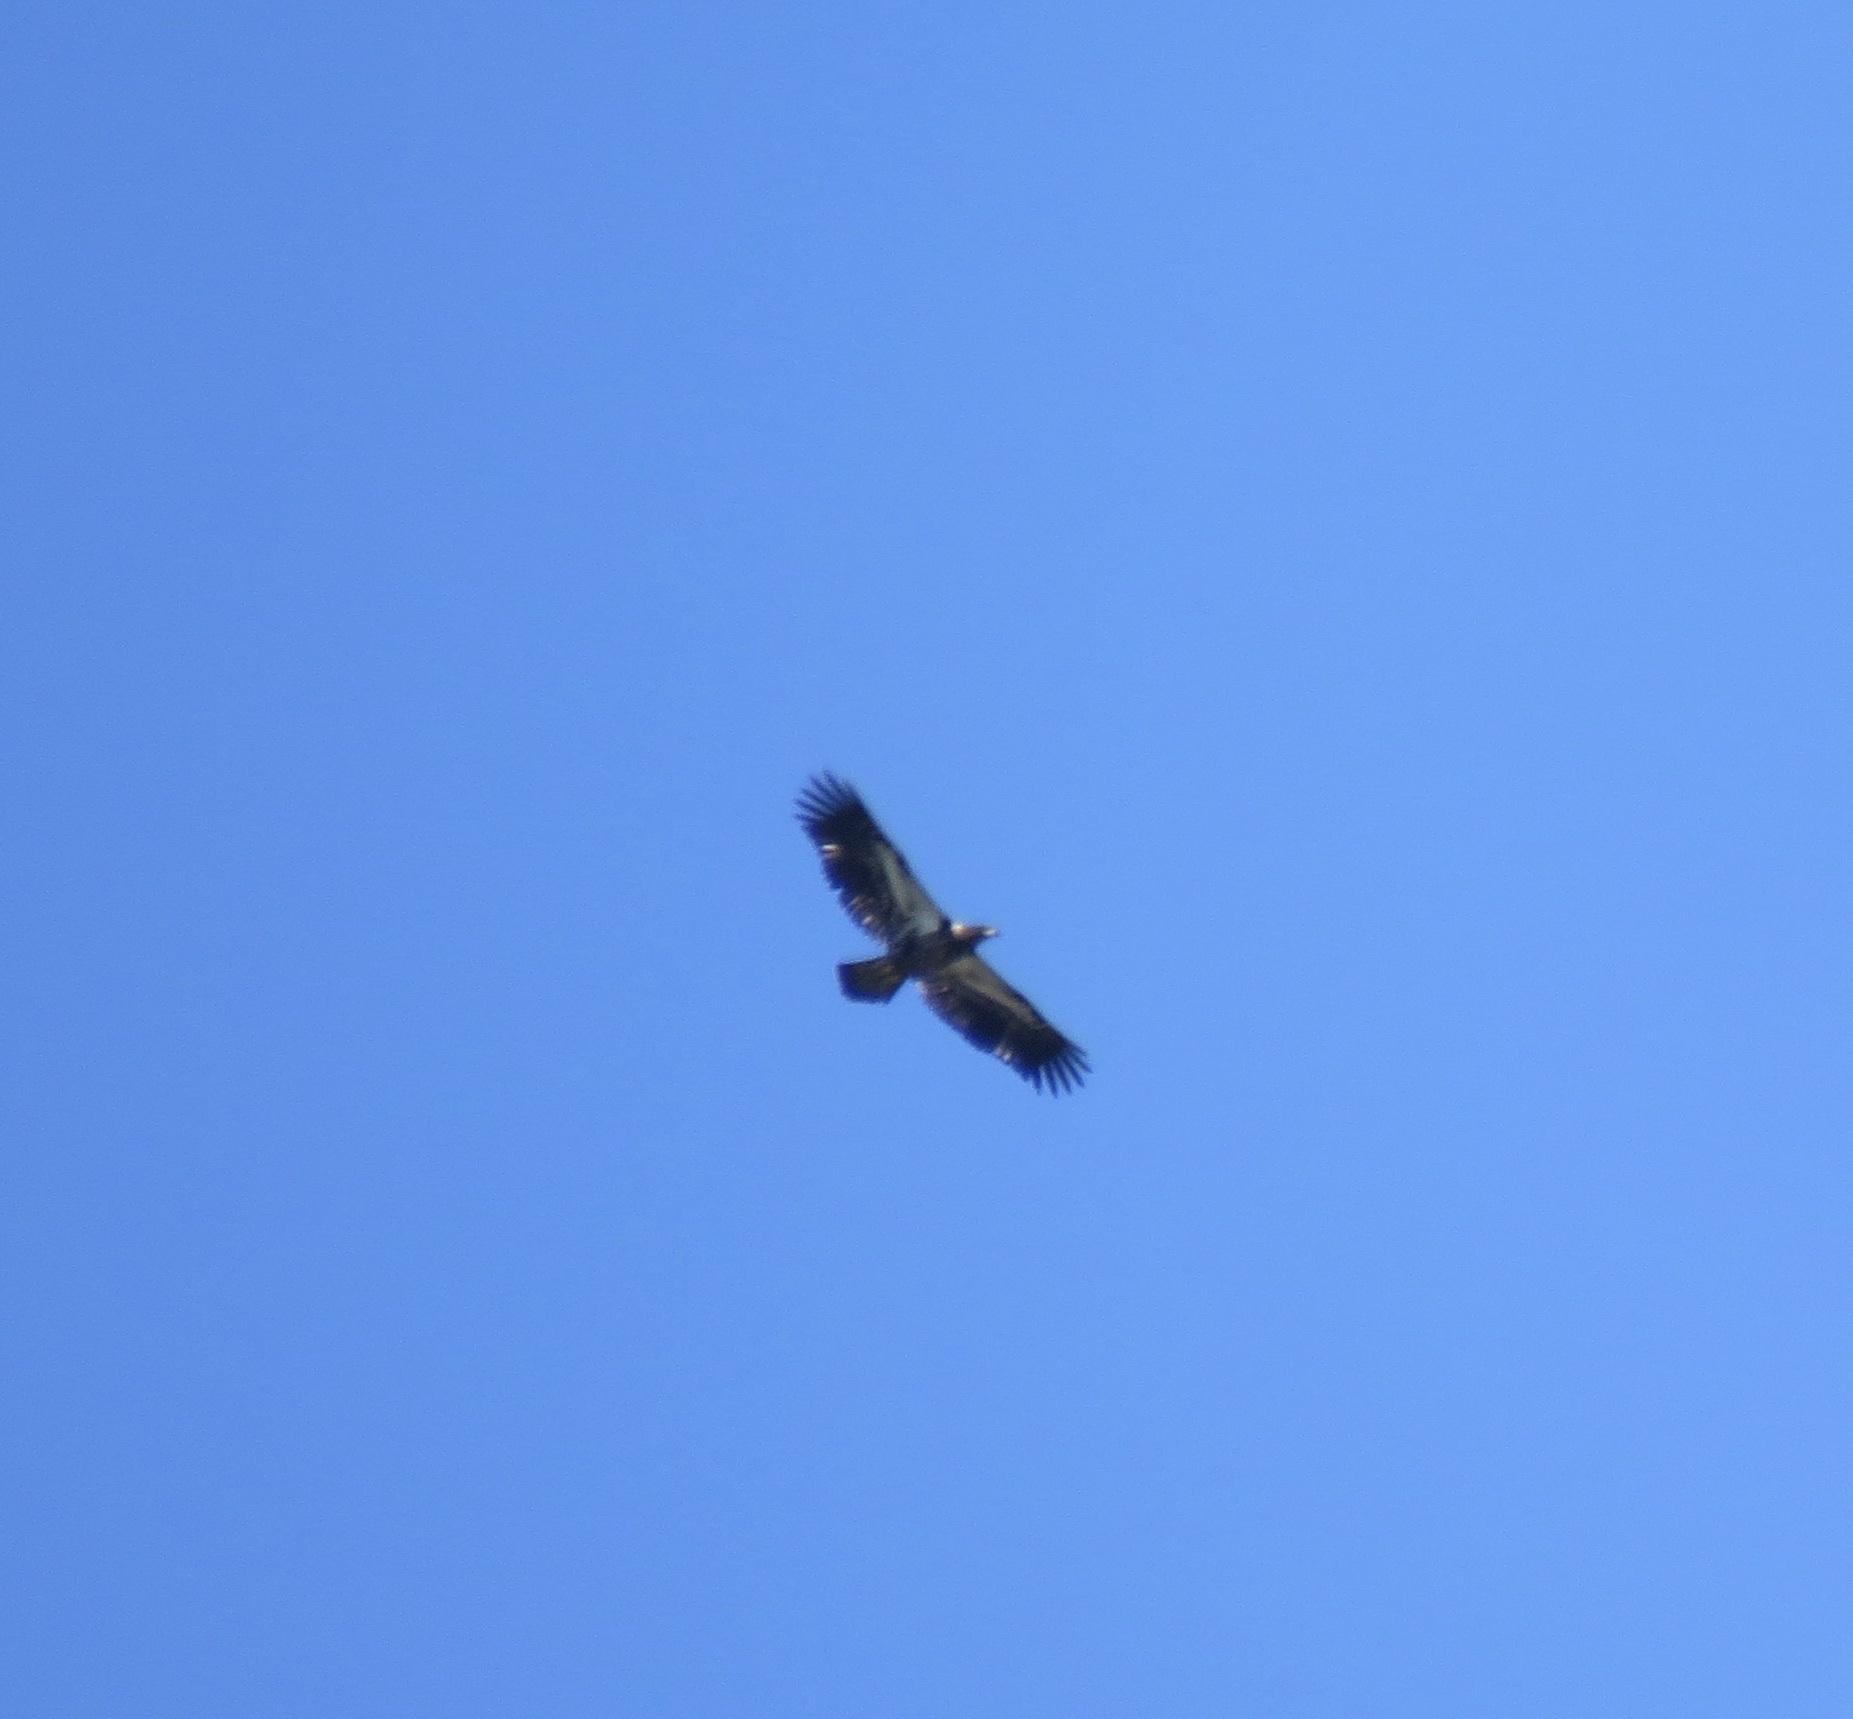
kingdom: Animalia
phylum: Chordata
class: Aves
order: Accipitriformes
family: Accipitridae
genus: Haliaeetus
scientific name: Haliaeetus leucocephalus
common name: Bald eagle
